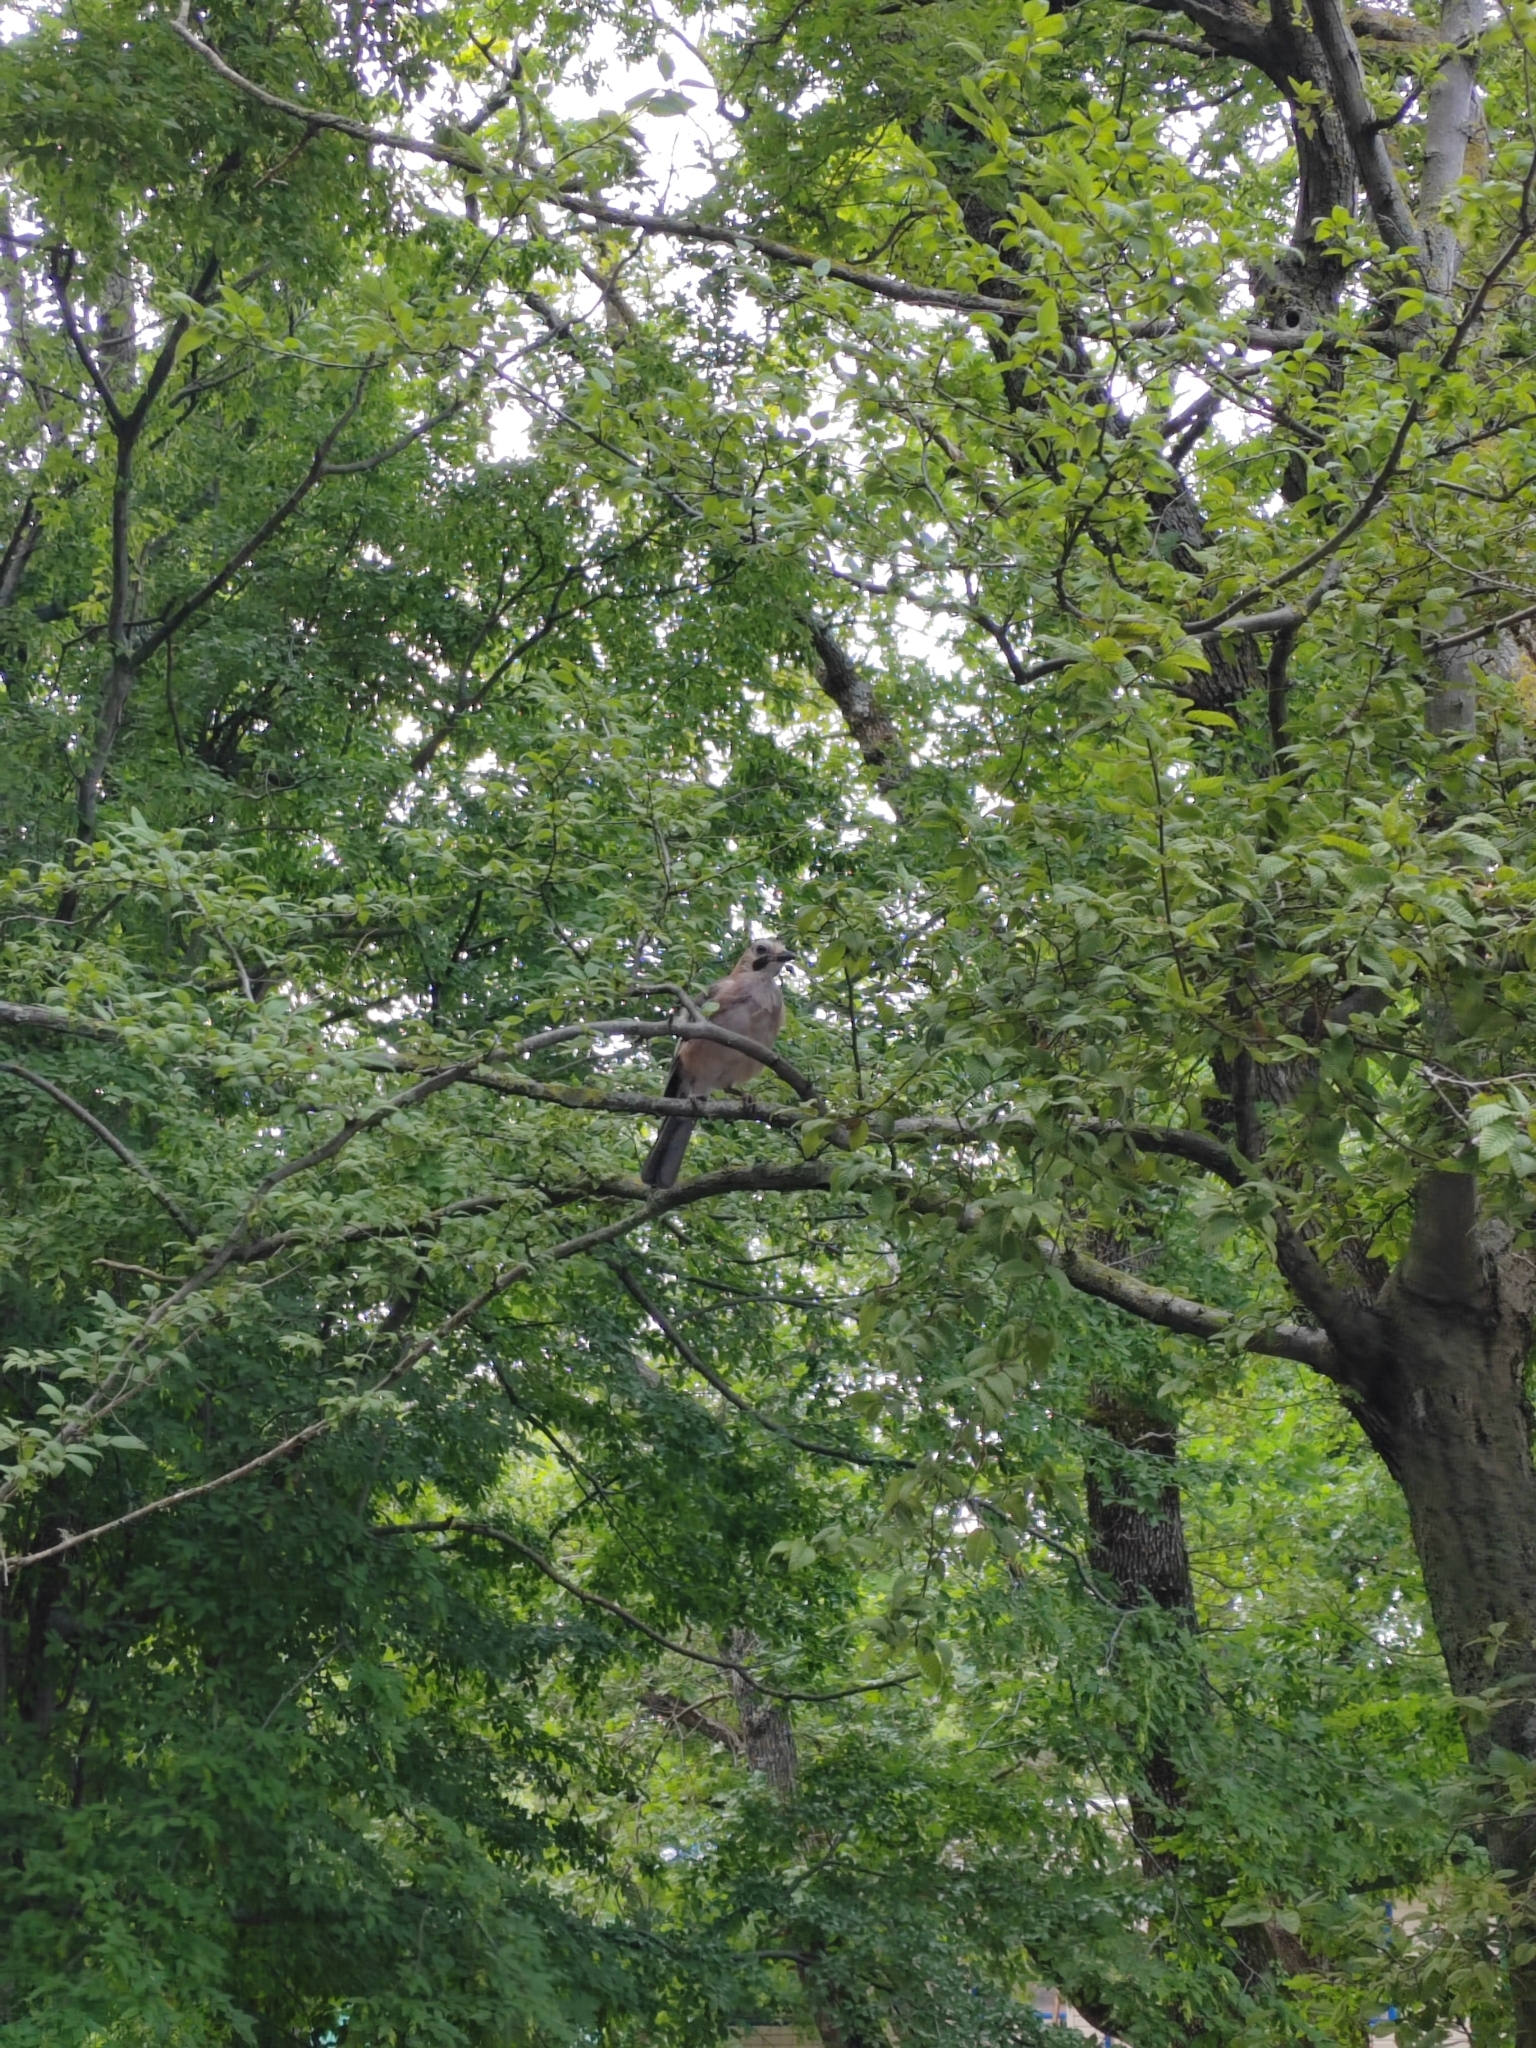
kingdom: Animalia
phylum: Chordata
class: Aves
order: Passeriformes
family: Corvidae
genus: Garrulus
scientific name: Garrulus glandarius
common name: Eurasian jay
